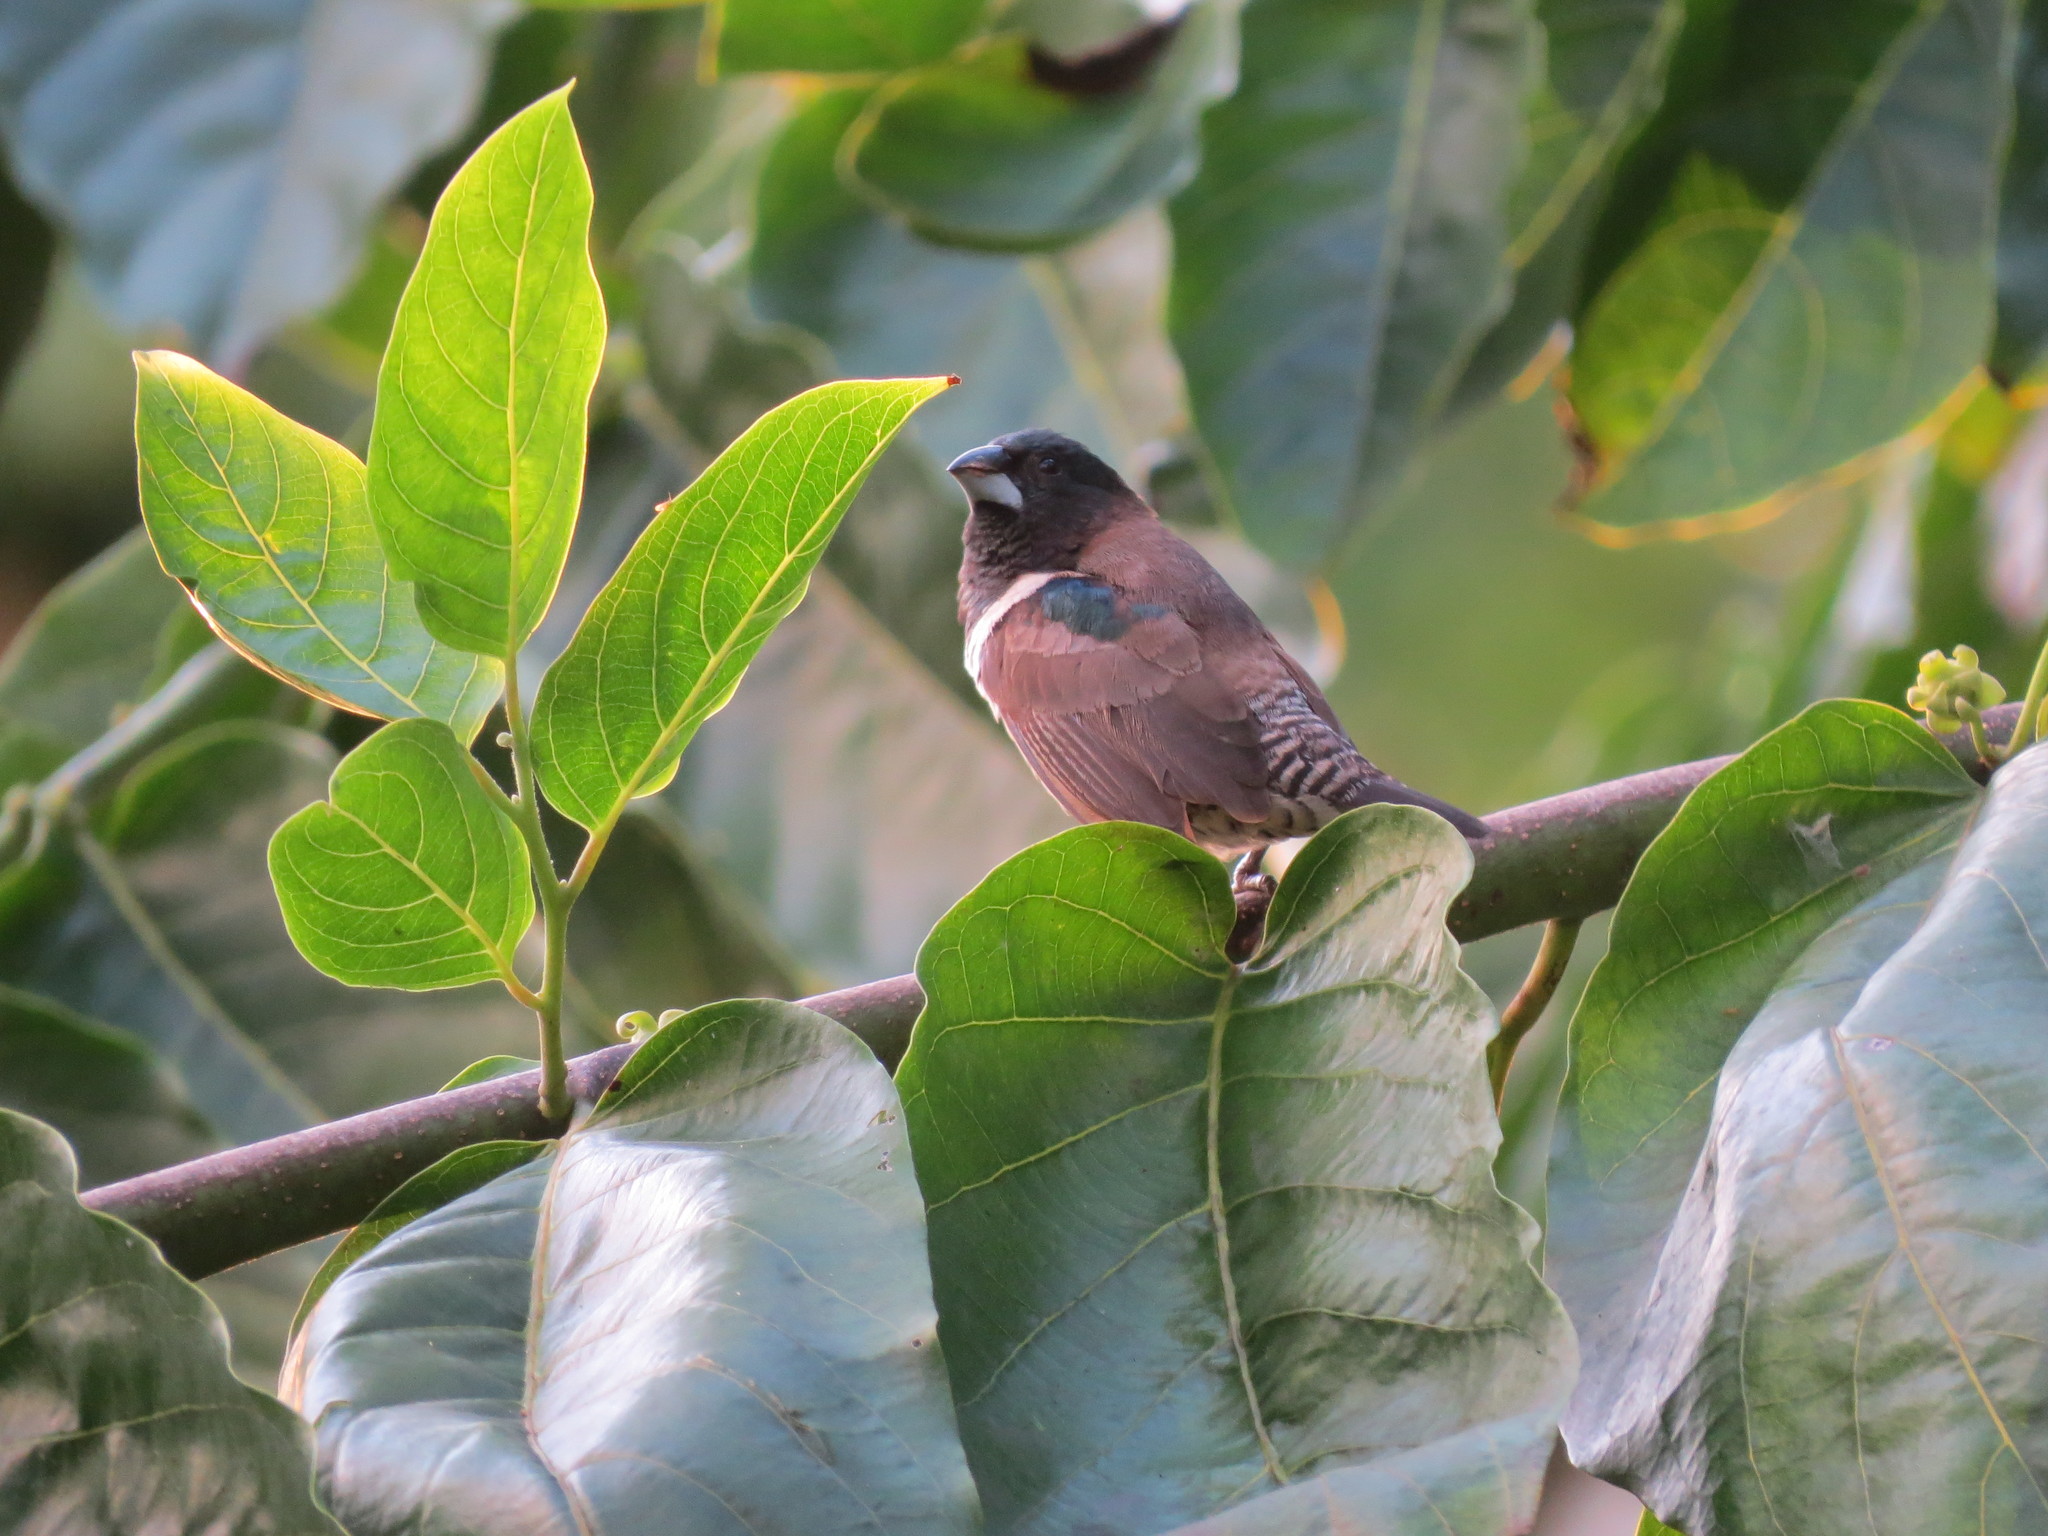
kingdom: Animalia
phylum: Chordata
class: Aves
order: Passeriformes
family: Estrildidae
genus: Lonchura
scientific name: Lonchura cucullata
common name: Bronze mannikin
